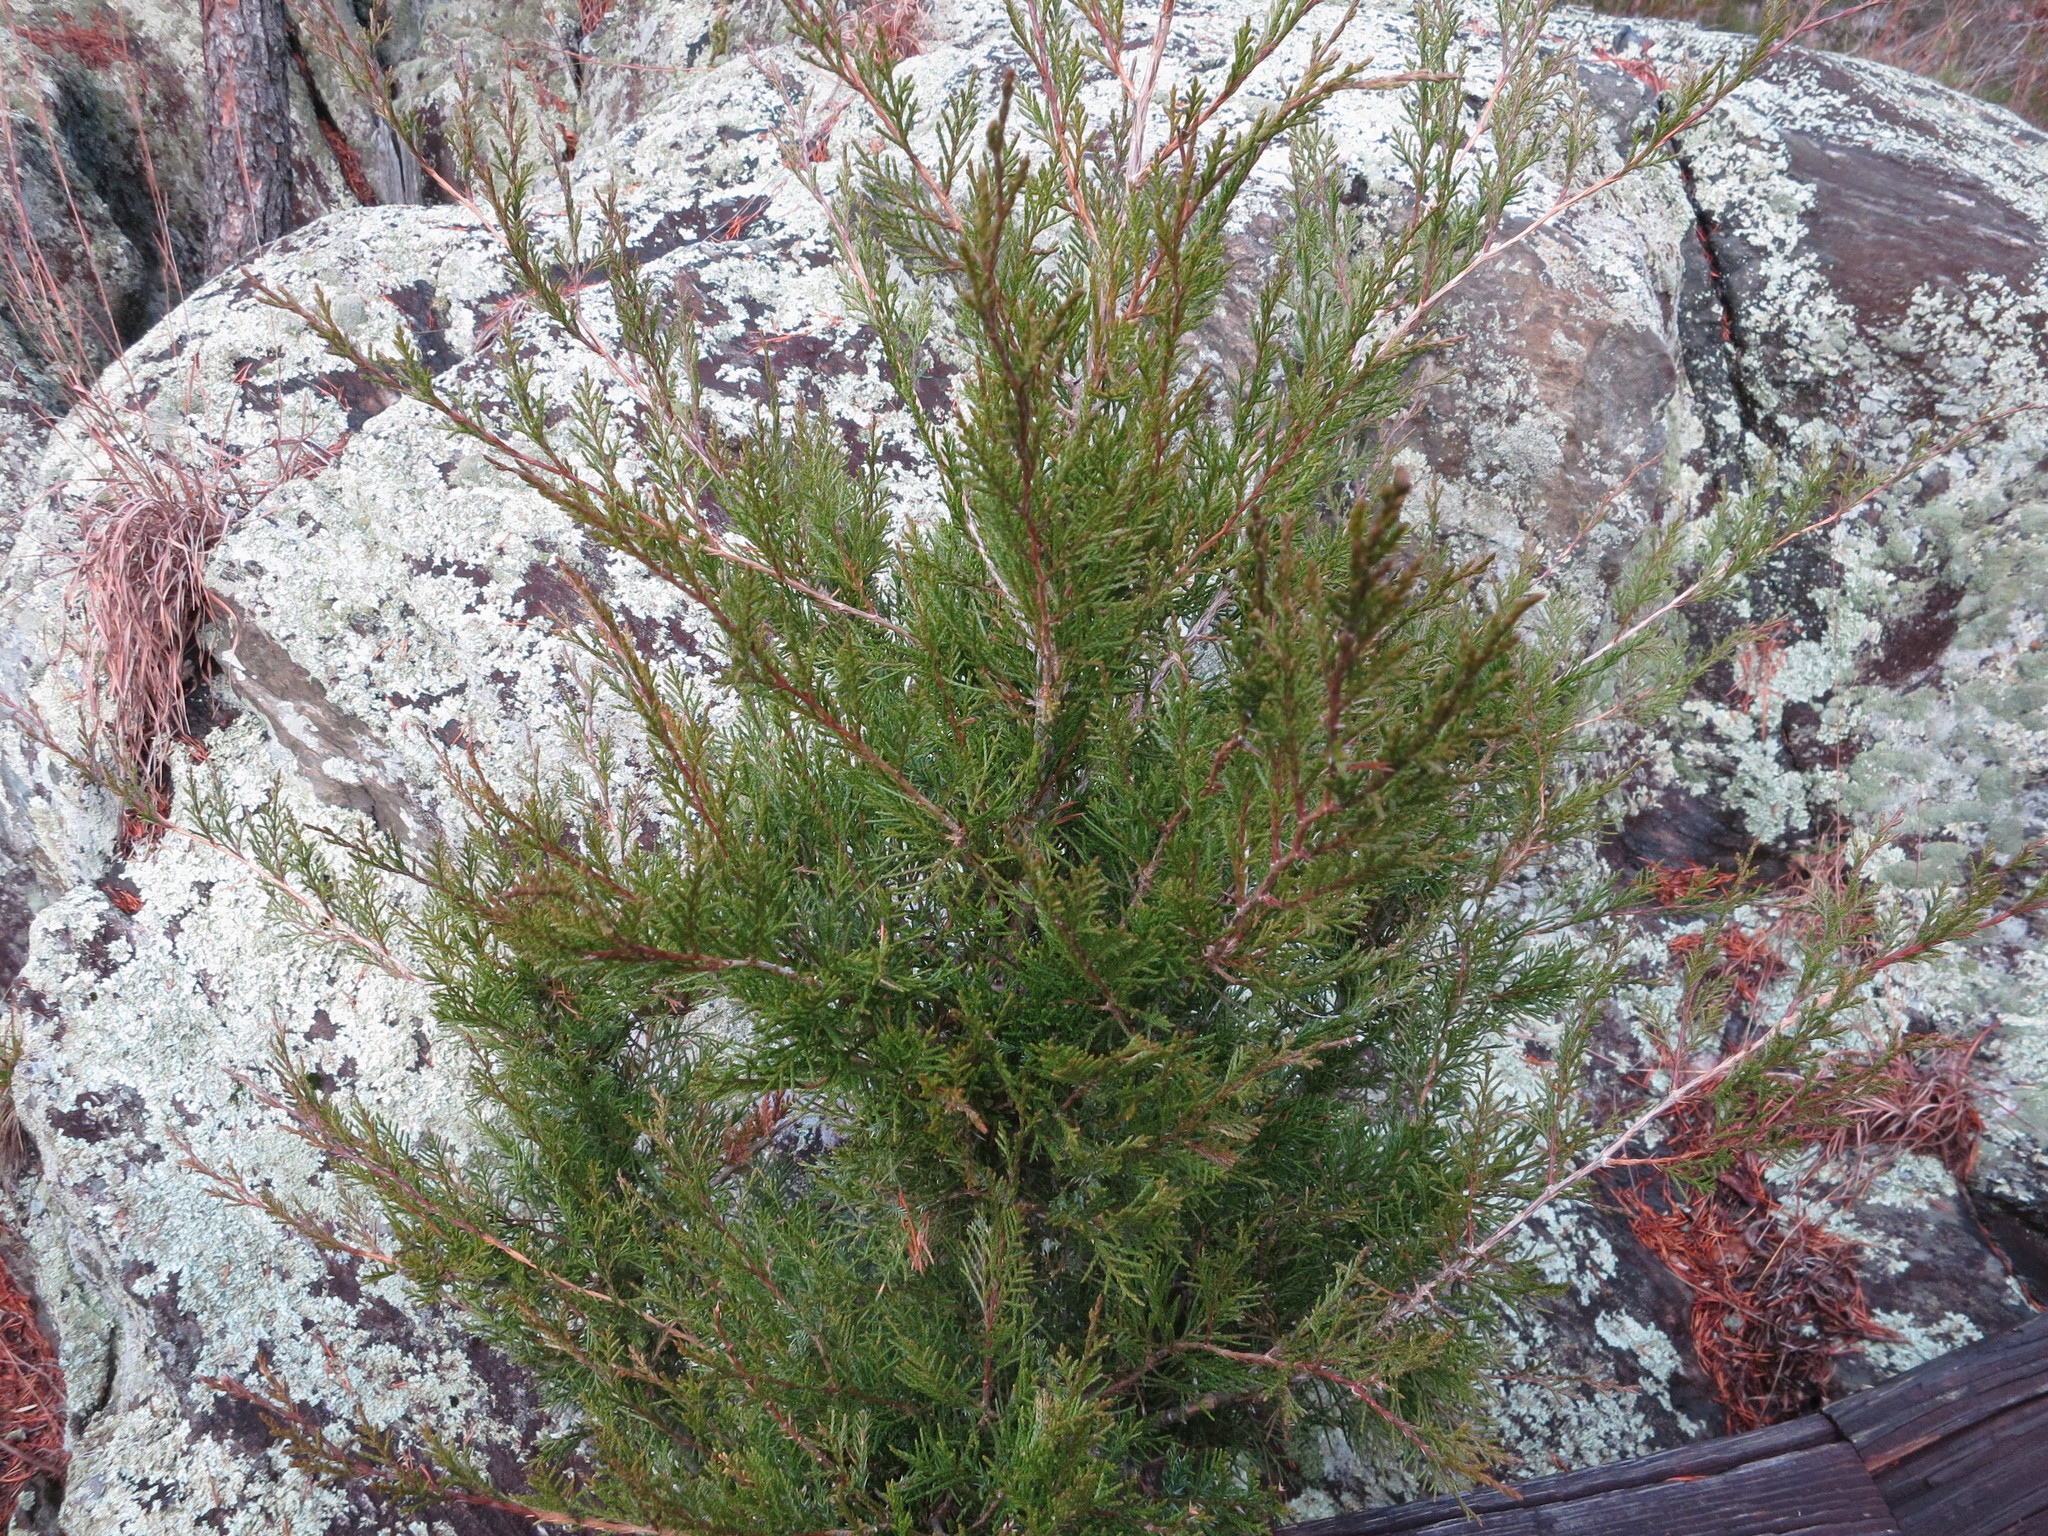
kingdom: Plantae
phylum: Tracheophyta
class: Pinopsida
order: Pinales
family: Cupressaceae
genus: Juniperus
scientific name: Juniperus virginiana
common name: Red juniper
